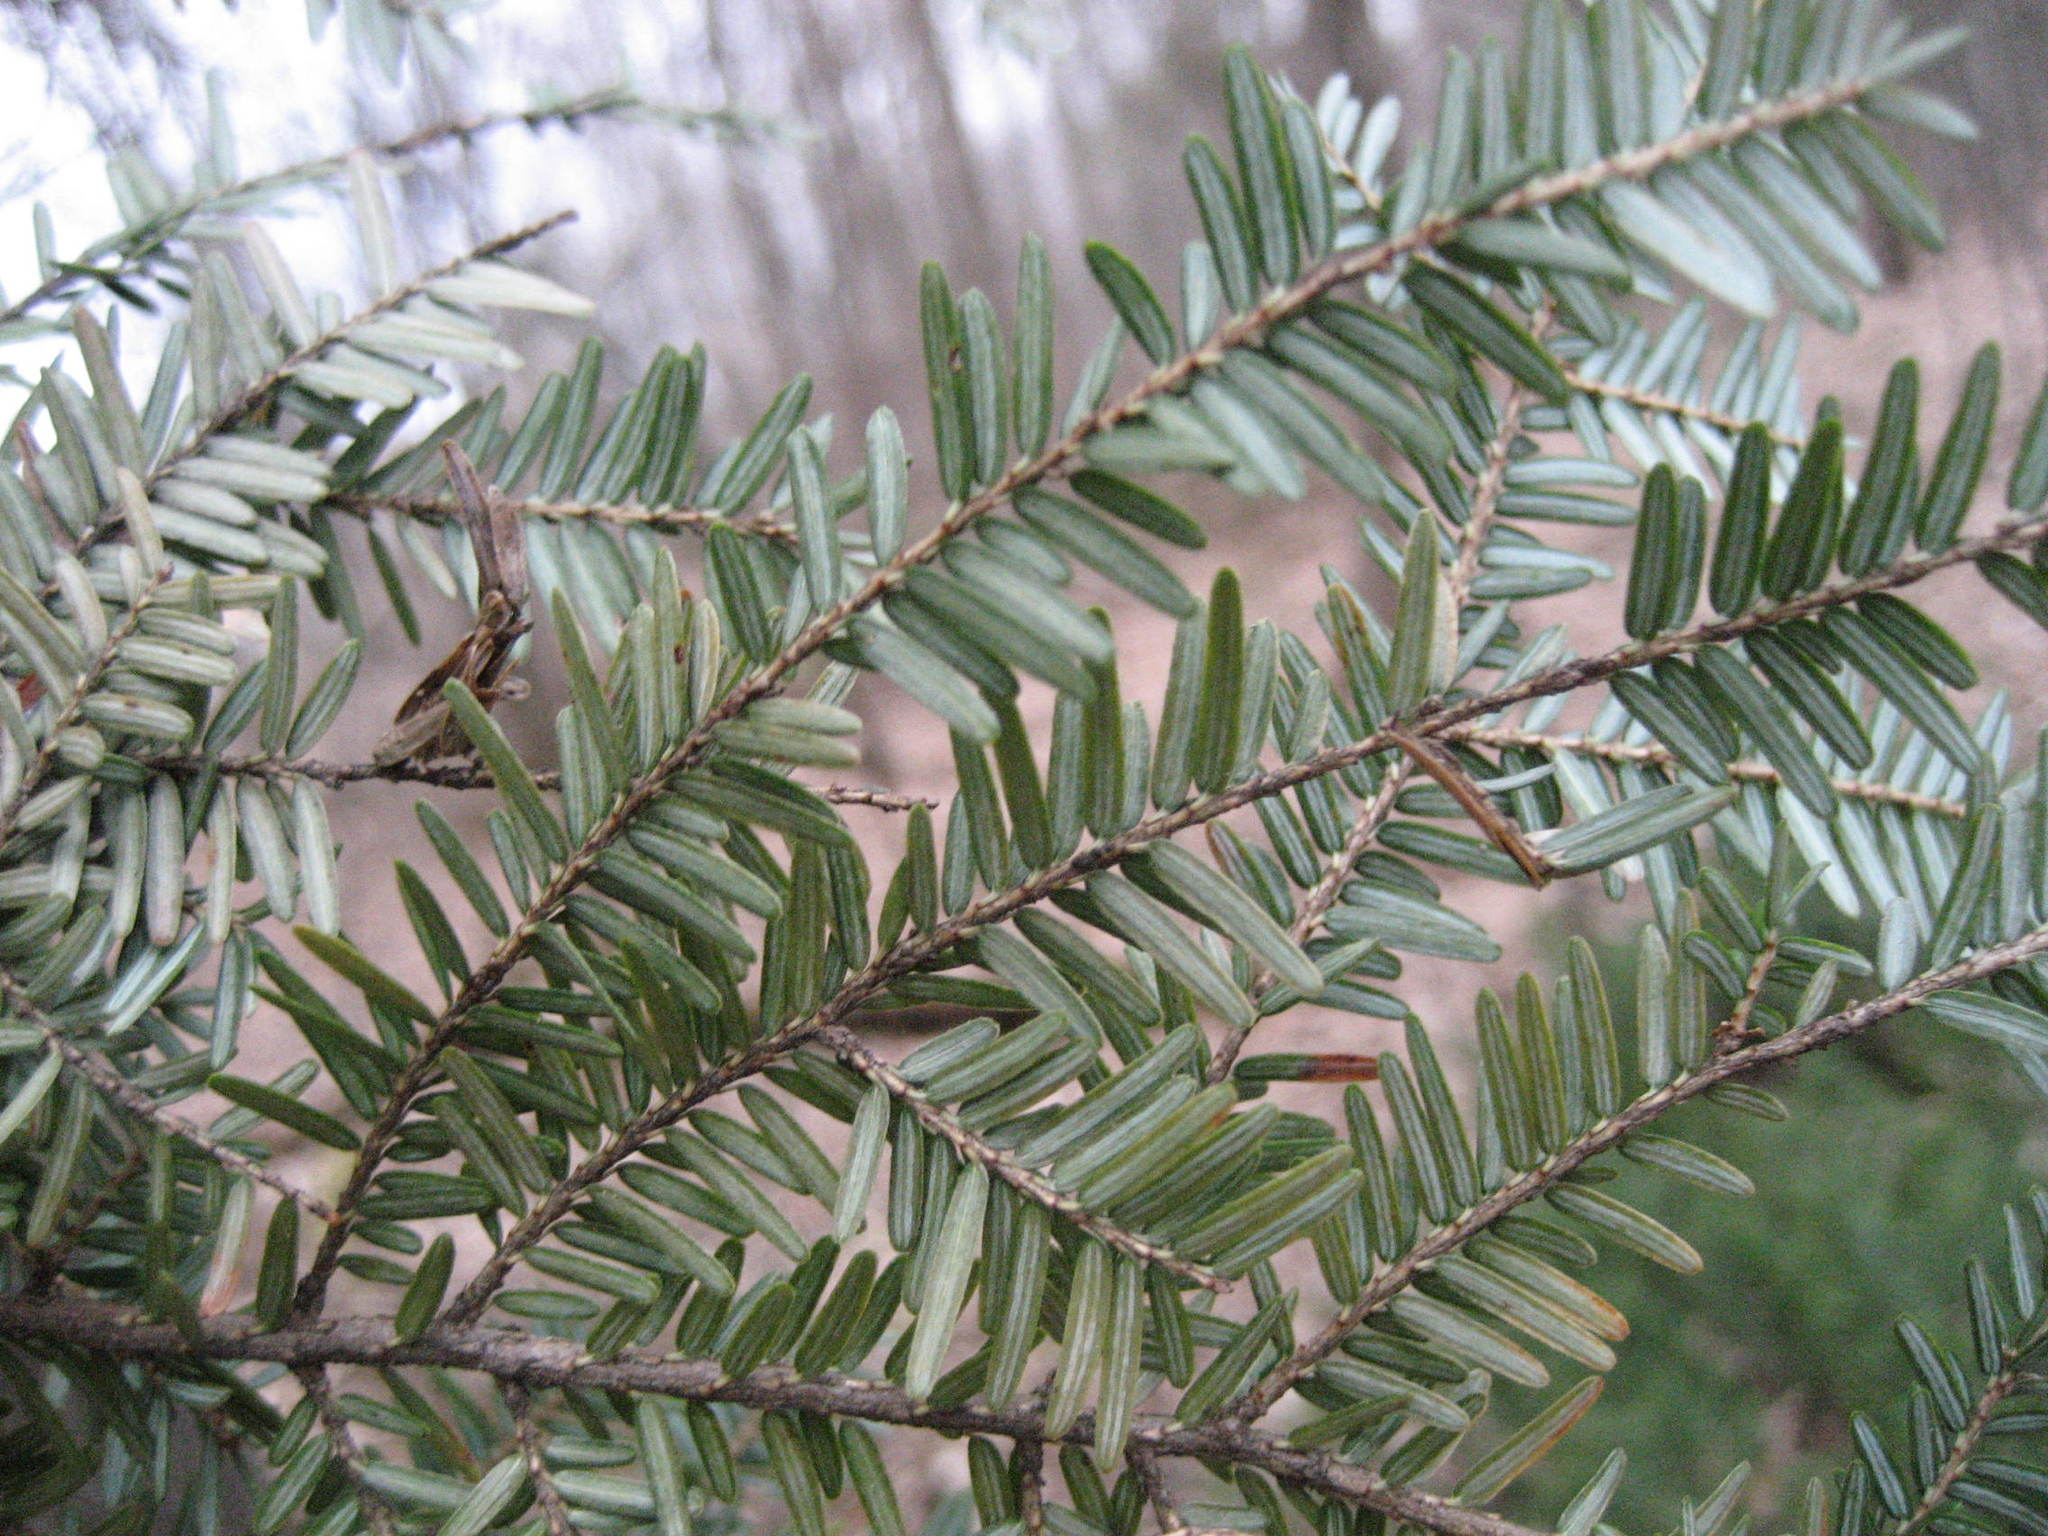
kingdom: Plantae
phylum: Tracheophyta
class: Pinopsida
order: Pinales
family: Pinaceae
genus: Tsuga
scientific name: Tsuga canadensis
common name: Eastern hemlock
